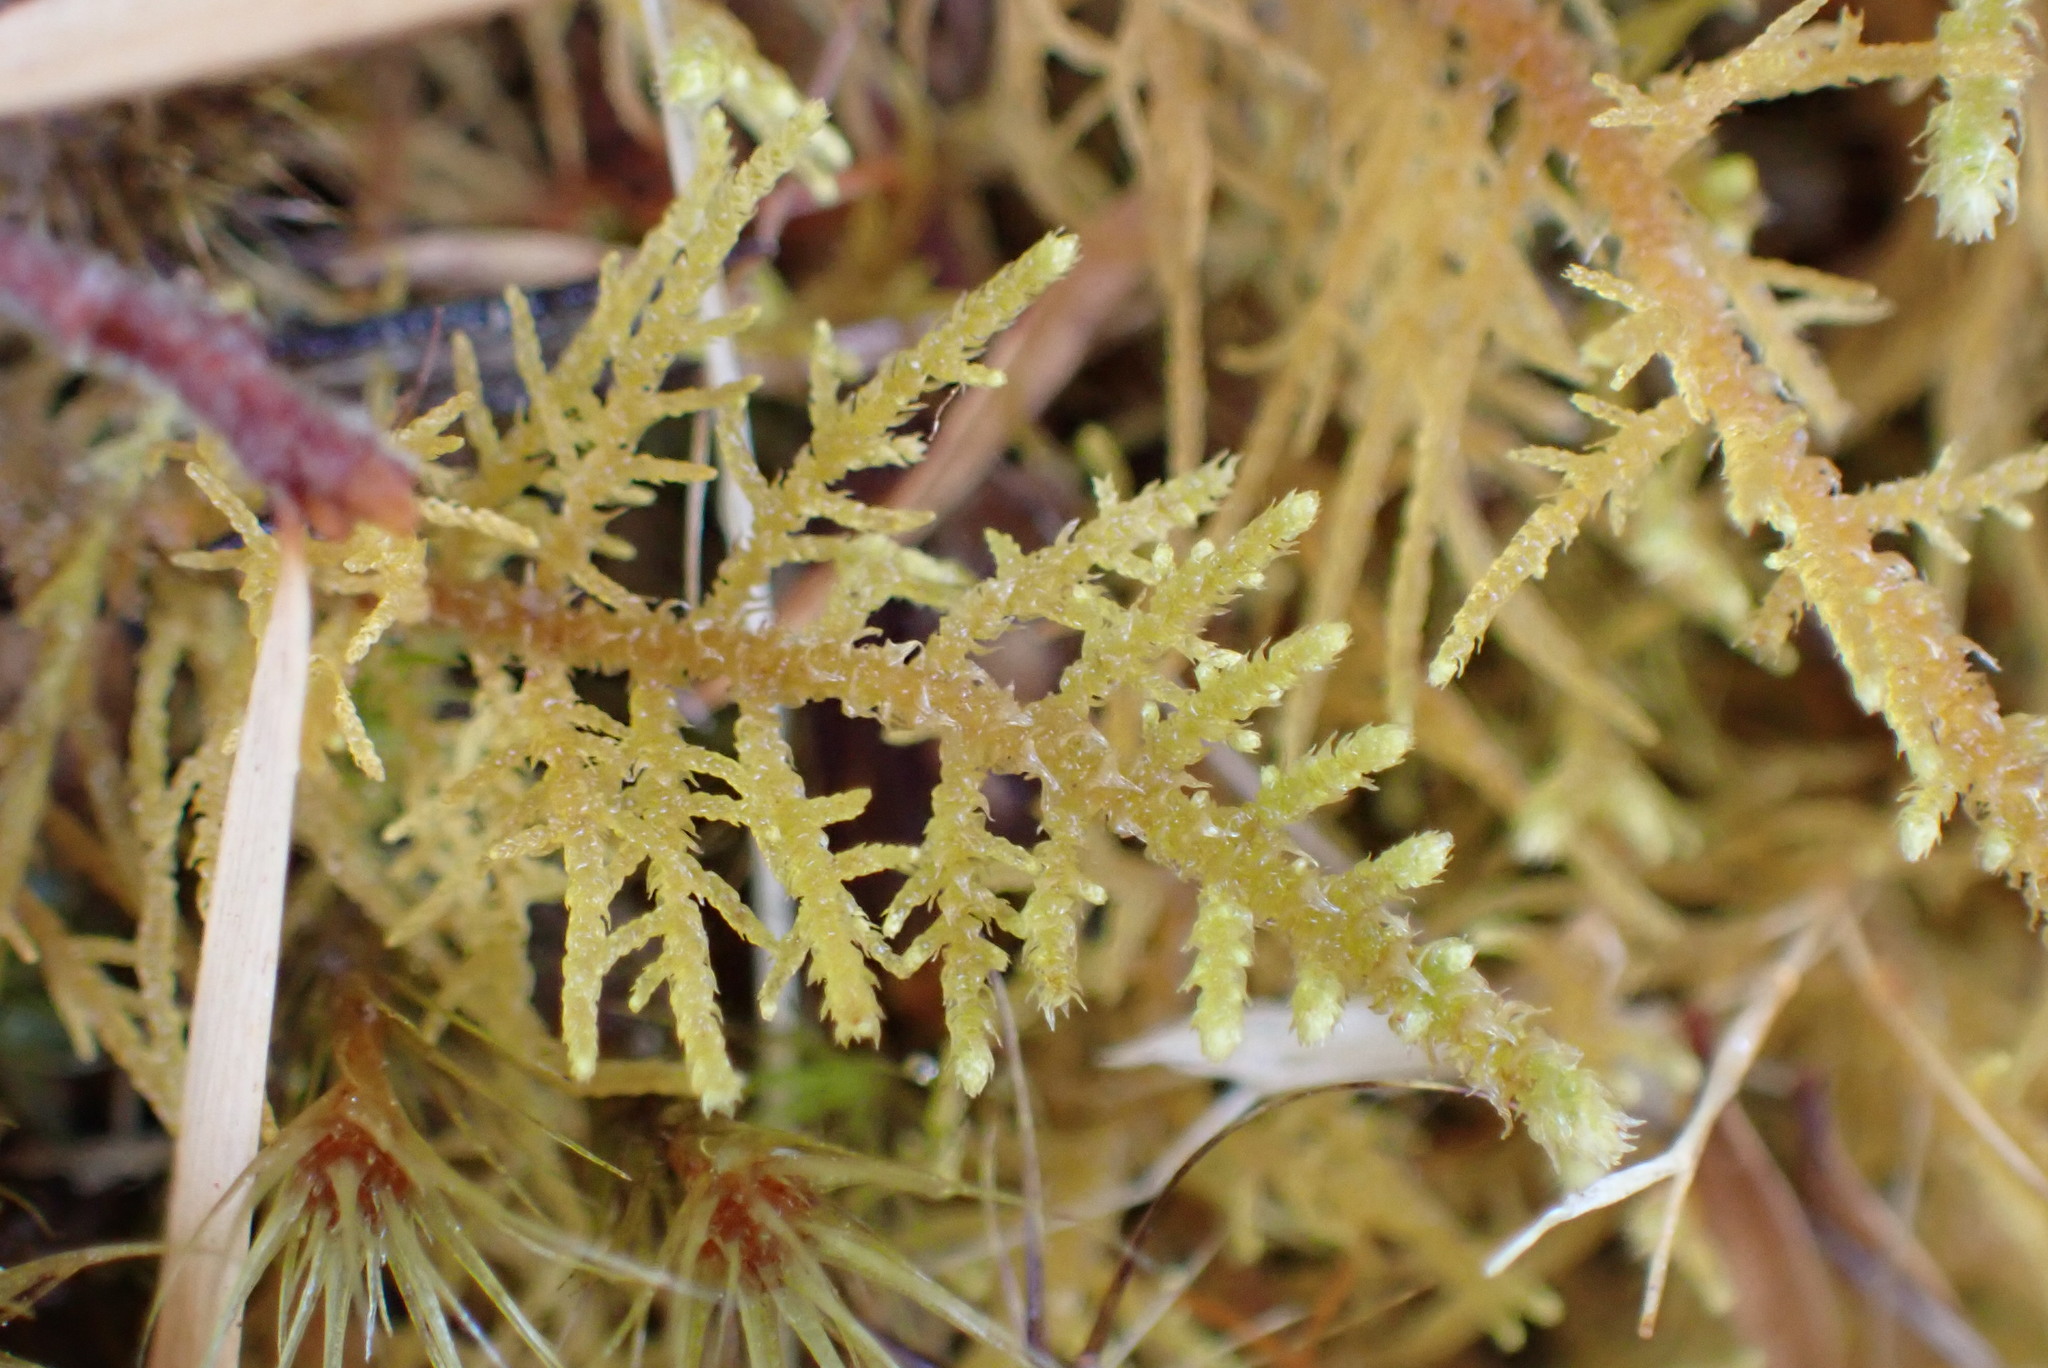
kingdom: Plantae
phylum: Bryophyta
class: Bryopsida
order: Hypnales
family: Thuidiaceae
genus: Thuidiopsis
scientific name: Thuidiopsis furfurosa
